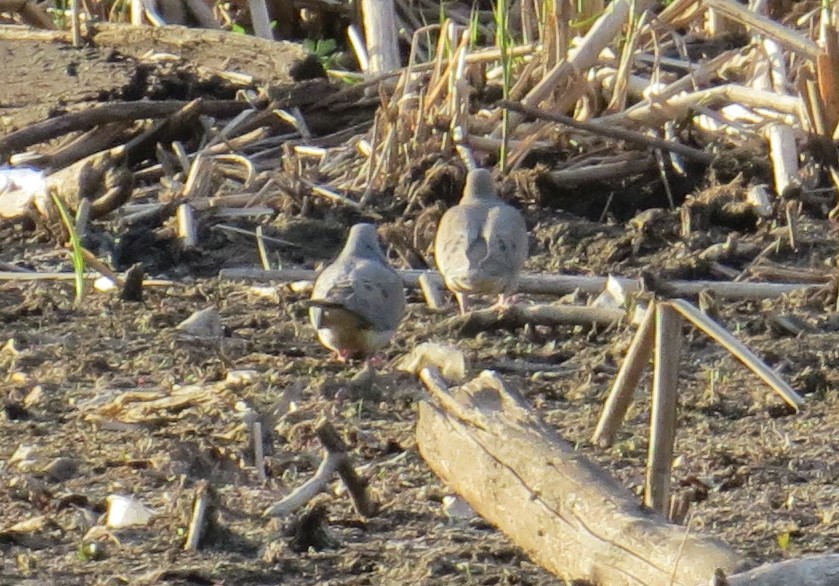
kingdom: Animalia
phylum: Chordata
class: Aves
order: Columbiformes
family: Columbidae
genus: Zenaida
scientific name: Zenaida macroura
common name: Mourning dove
